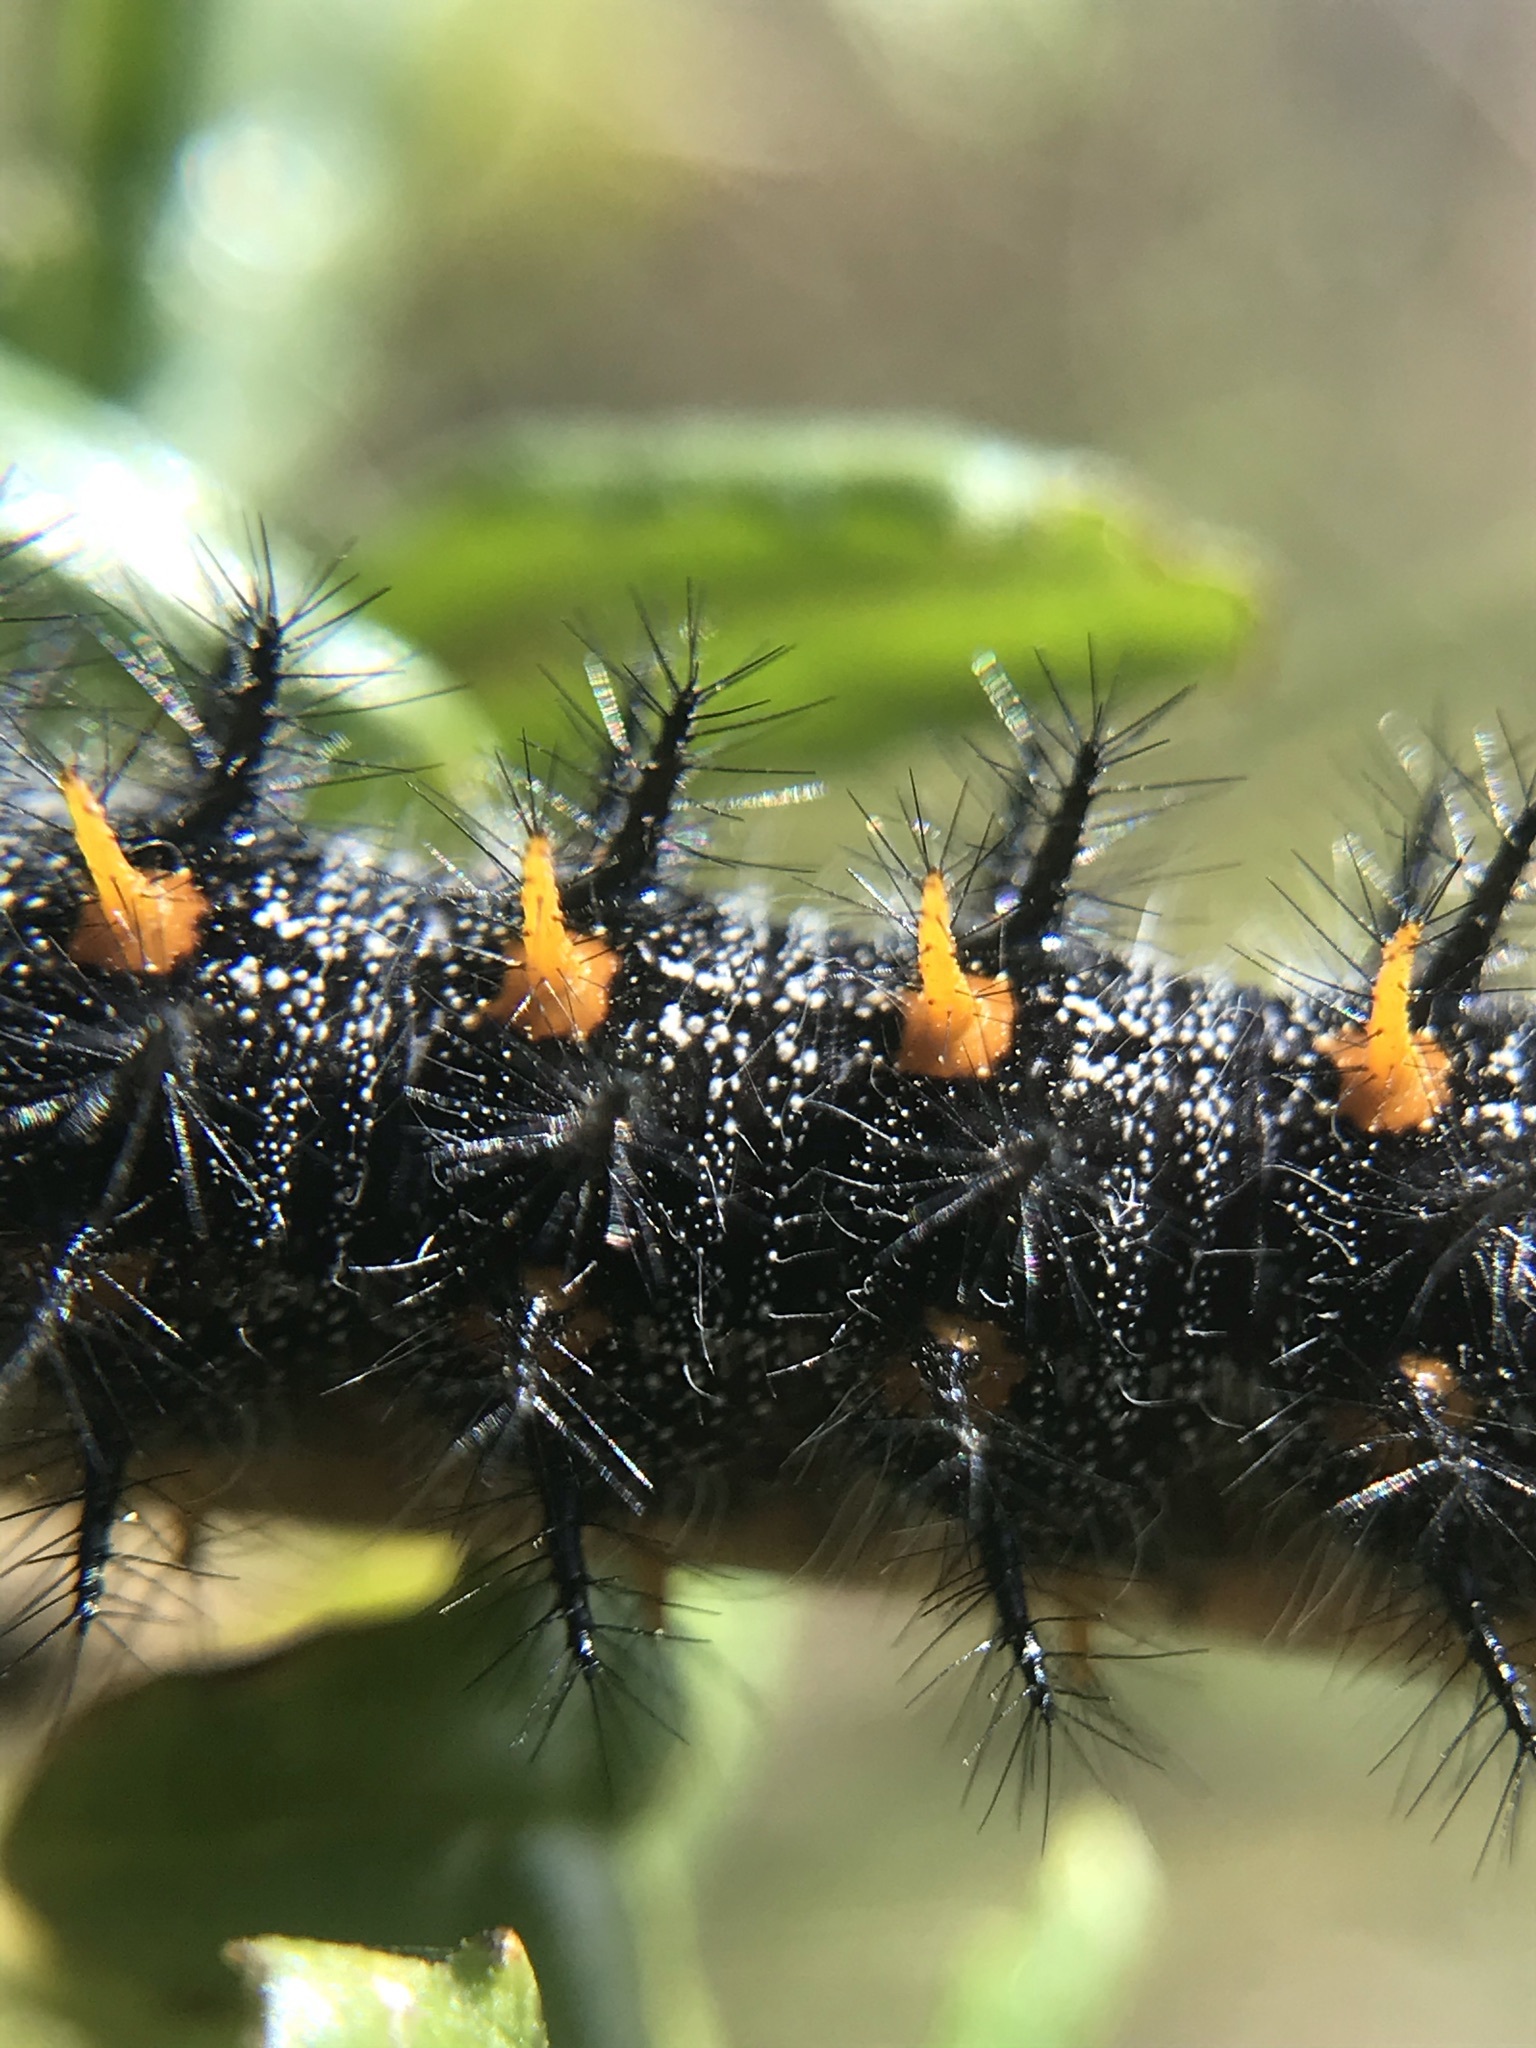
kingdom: Animalia
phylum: Arthropoda
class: Insecta
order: Lepidoptera
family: Nymphalidae
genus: Occidryas
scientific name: Occidryas chalcedona
